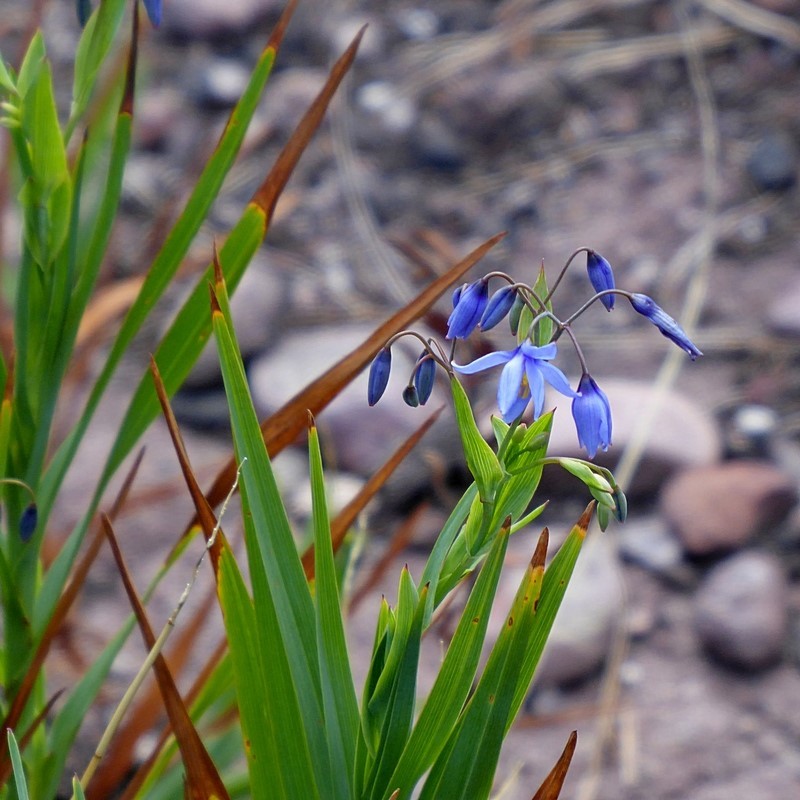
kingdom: Plantae
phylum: Tracheophyta
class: Liliopsida
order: Asparagales
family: Asphodelaceae
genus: Stypandra
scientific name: Stypandra glauca
